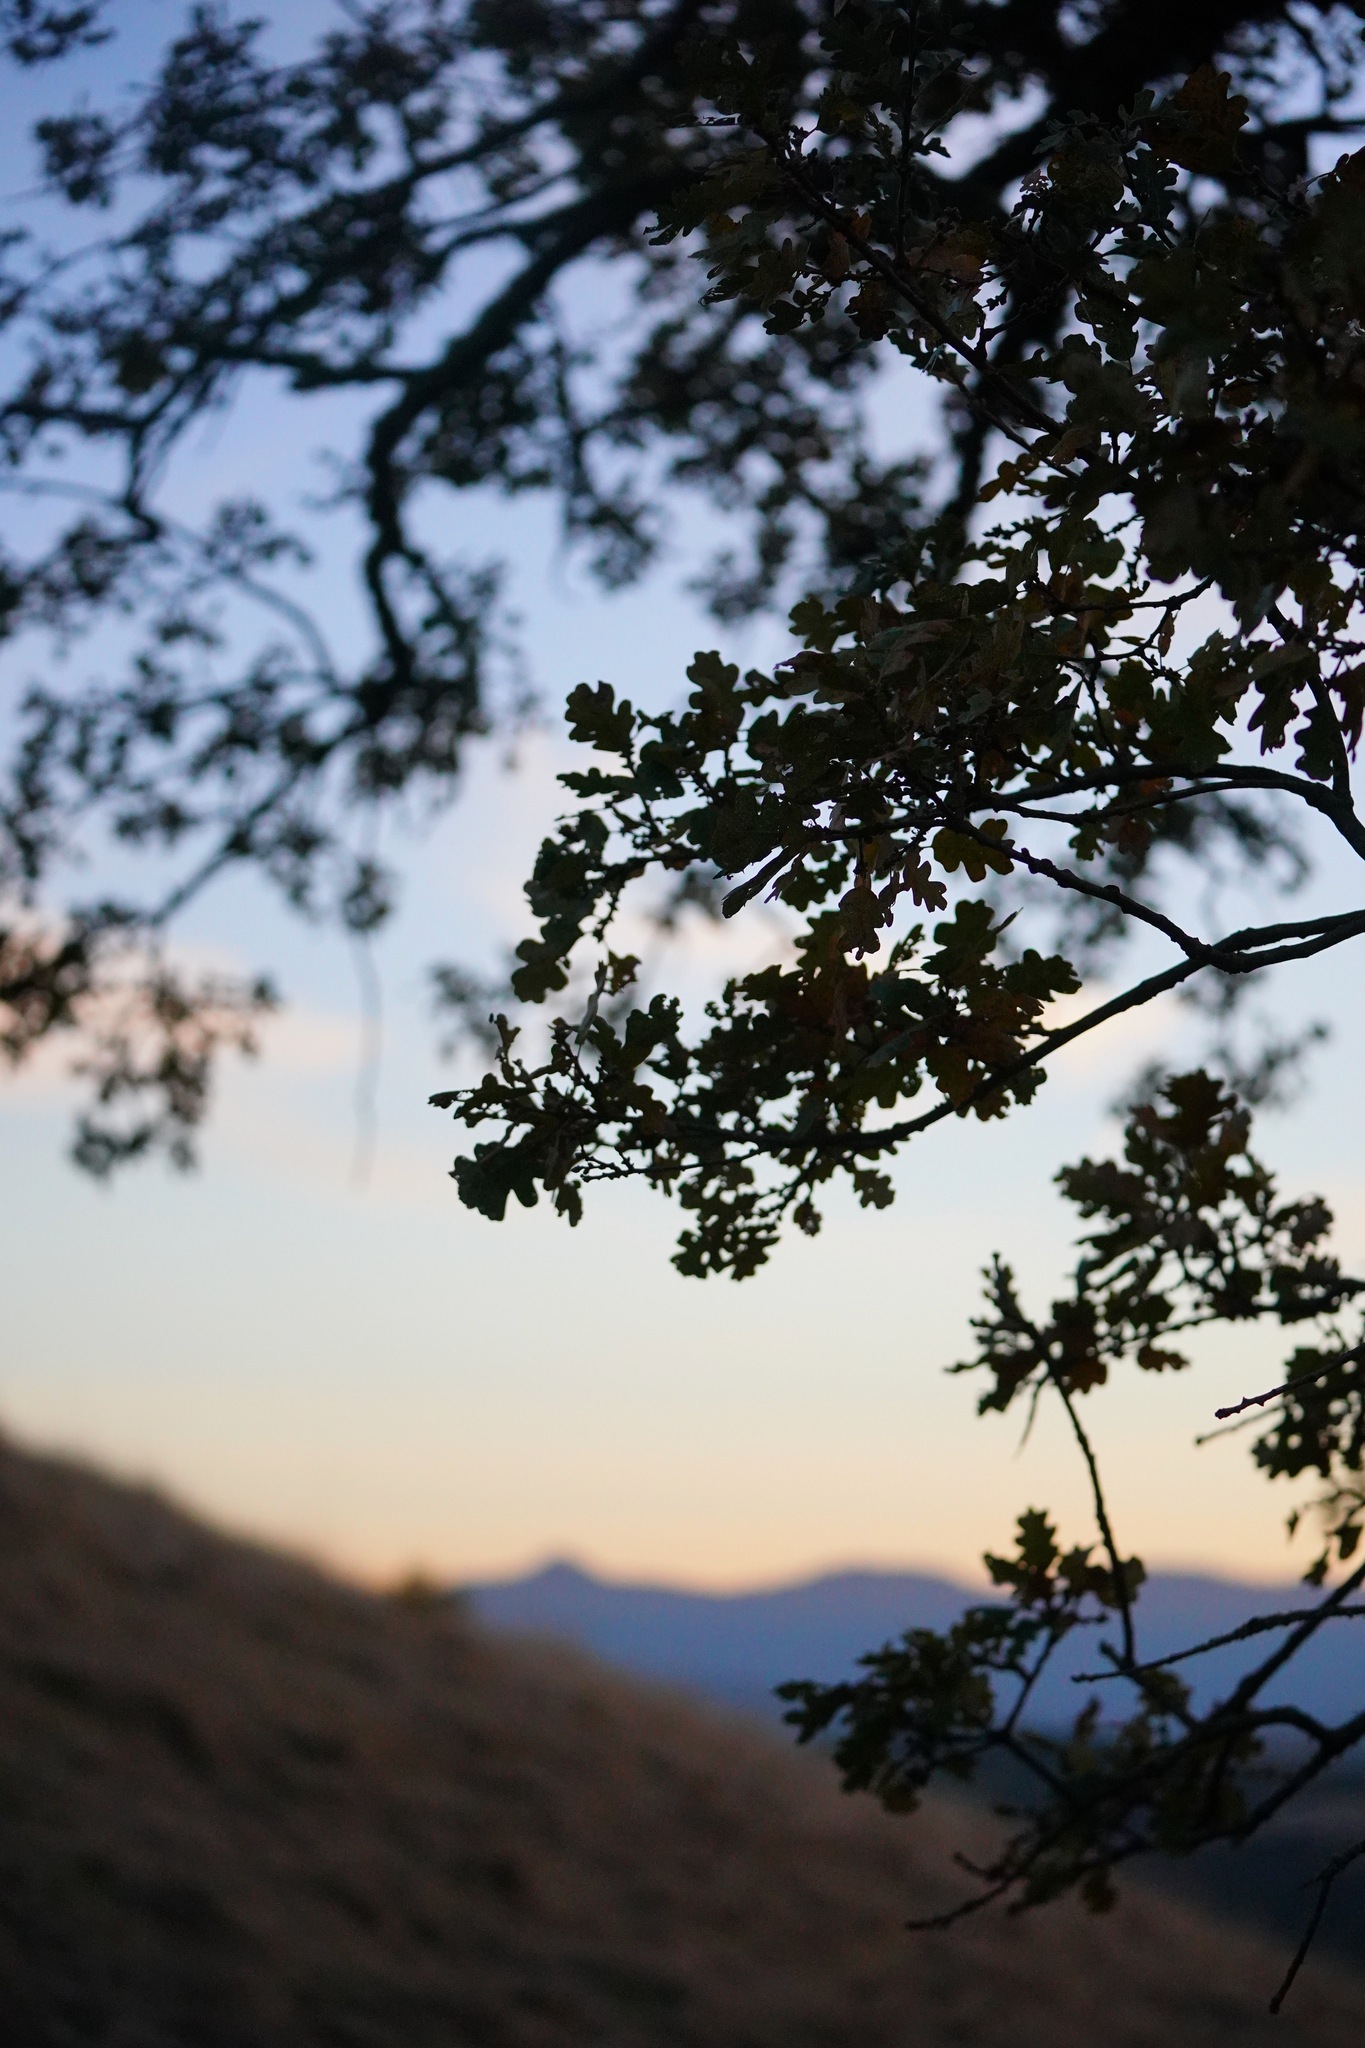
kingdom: Plantae
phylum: Tracheophyta
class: Magnoliopsida
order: Fagales
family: Fagaceae
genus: Quercus
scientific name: Quercus lobata
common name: Valley oak
